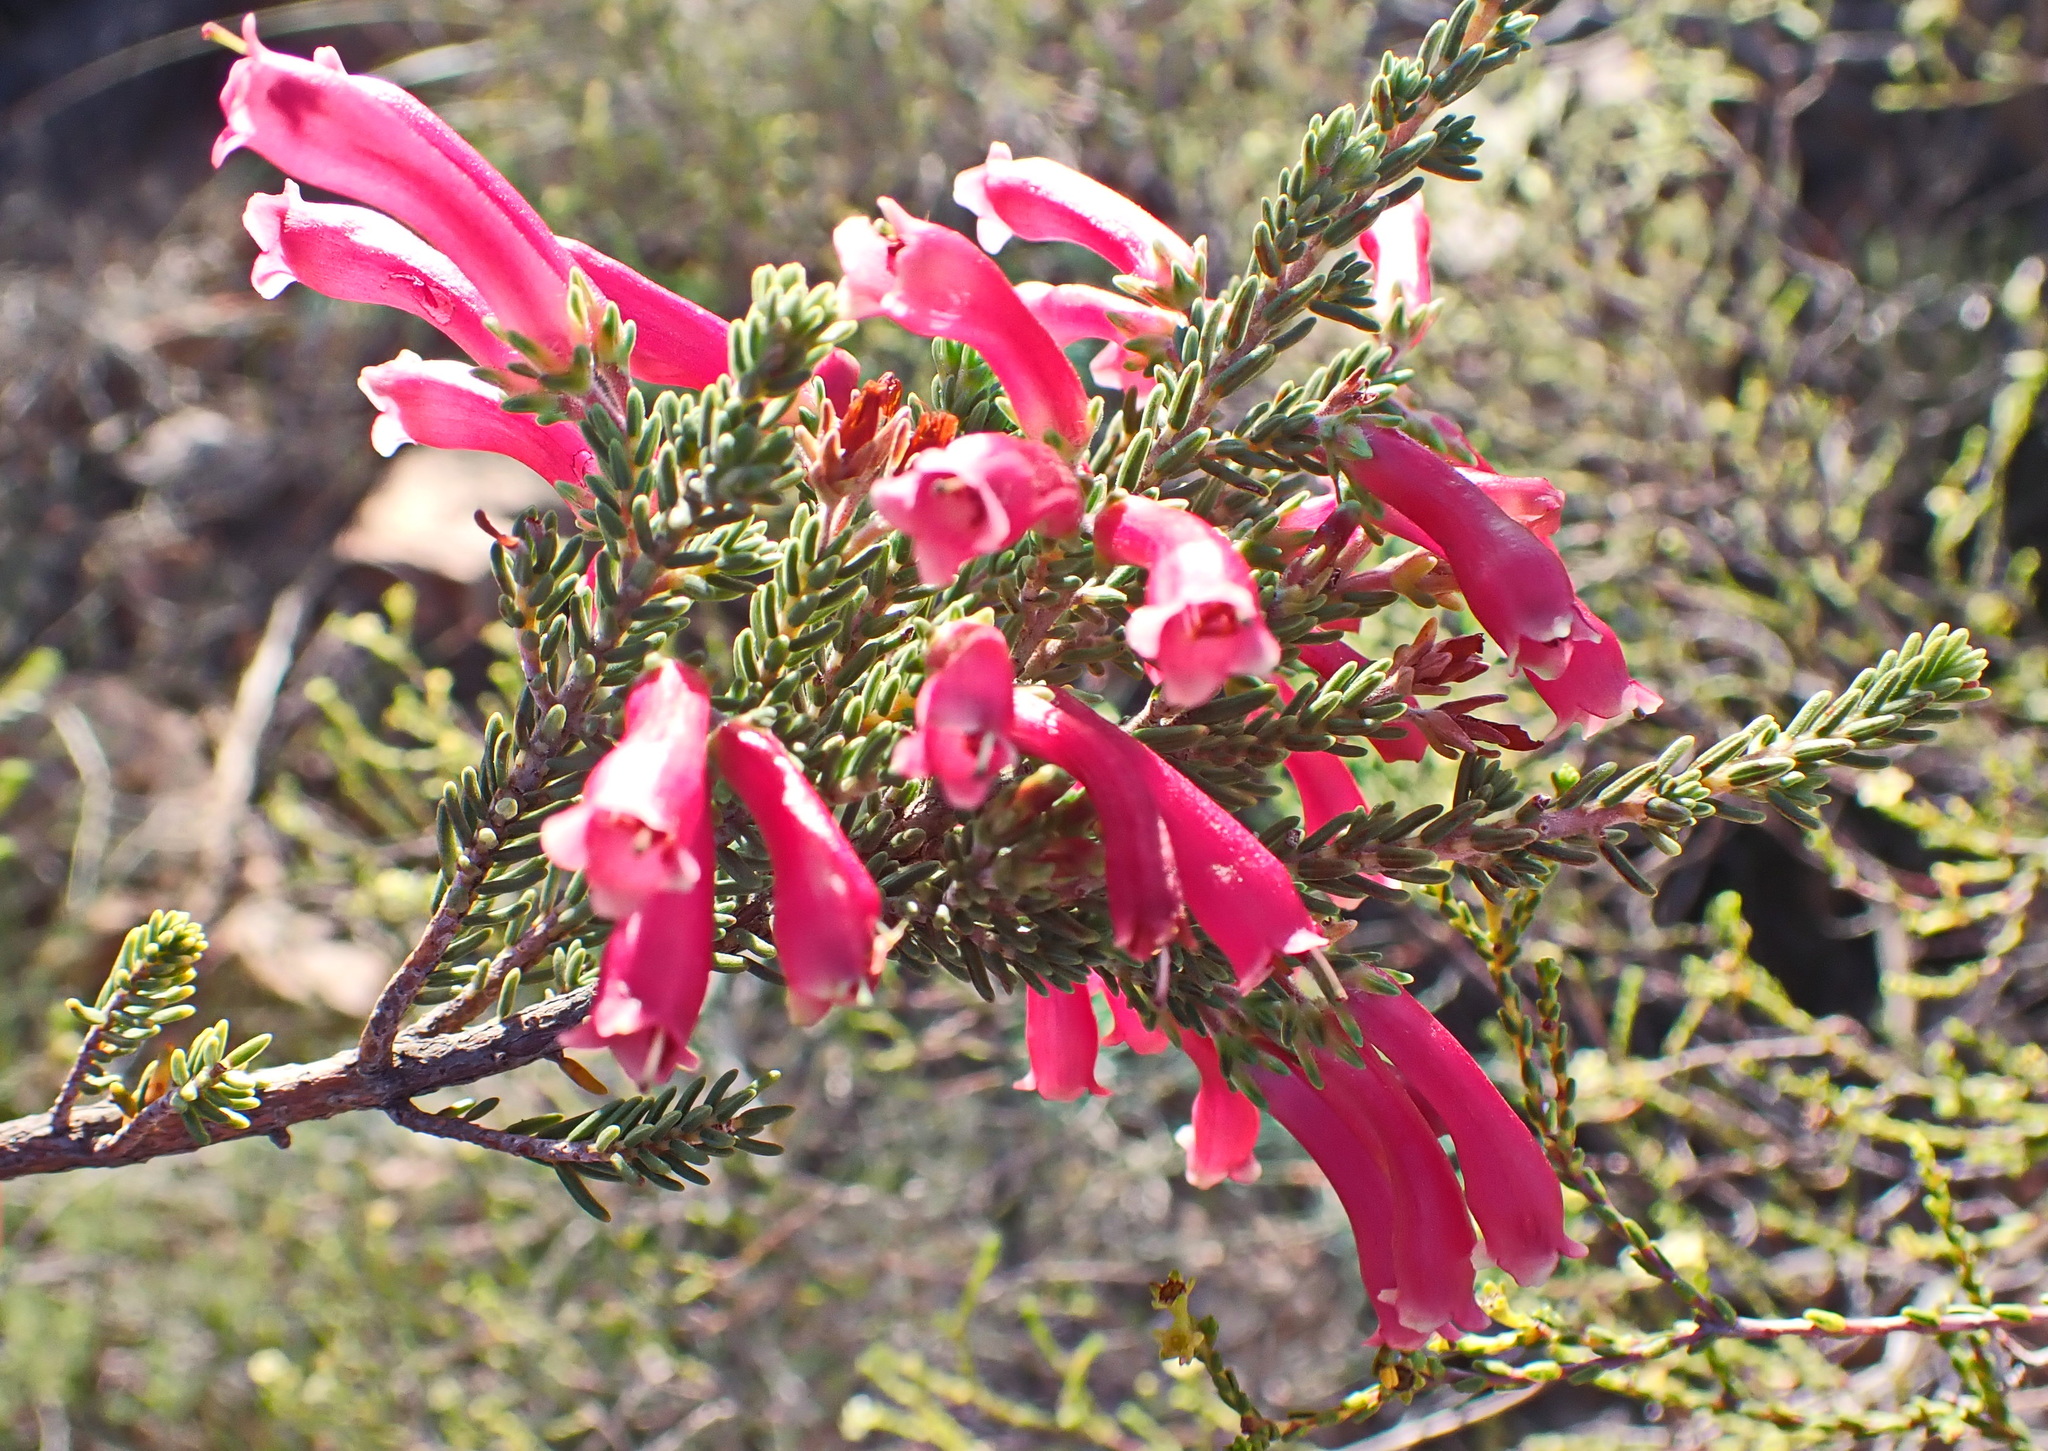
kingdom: Plantae
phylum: Tracheophyta
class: Magnoliopsida
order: Ericales
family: Ericaceae
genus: Erica
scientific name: Erica discolor
